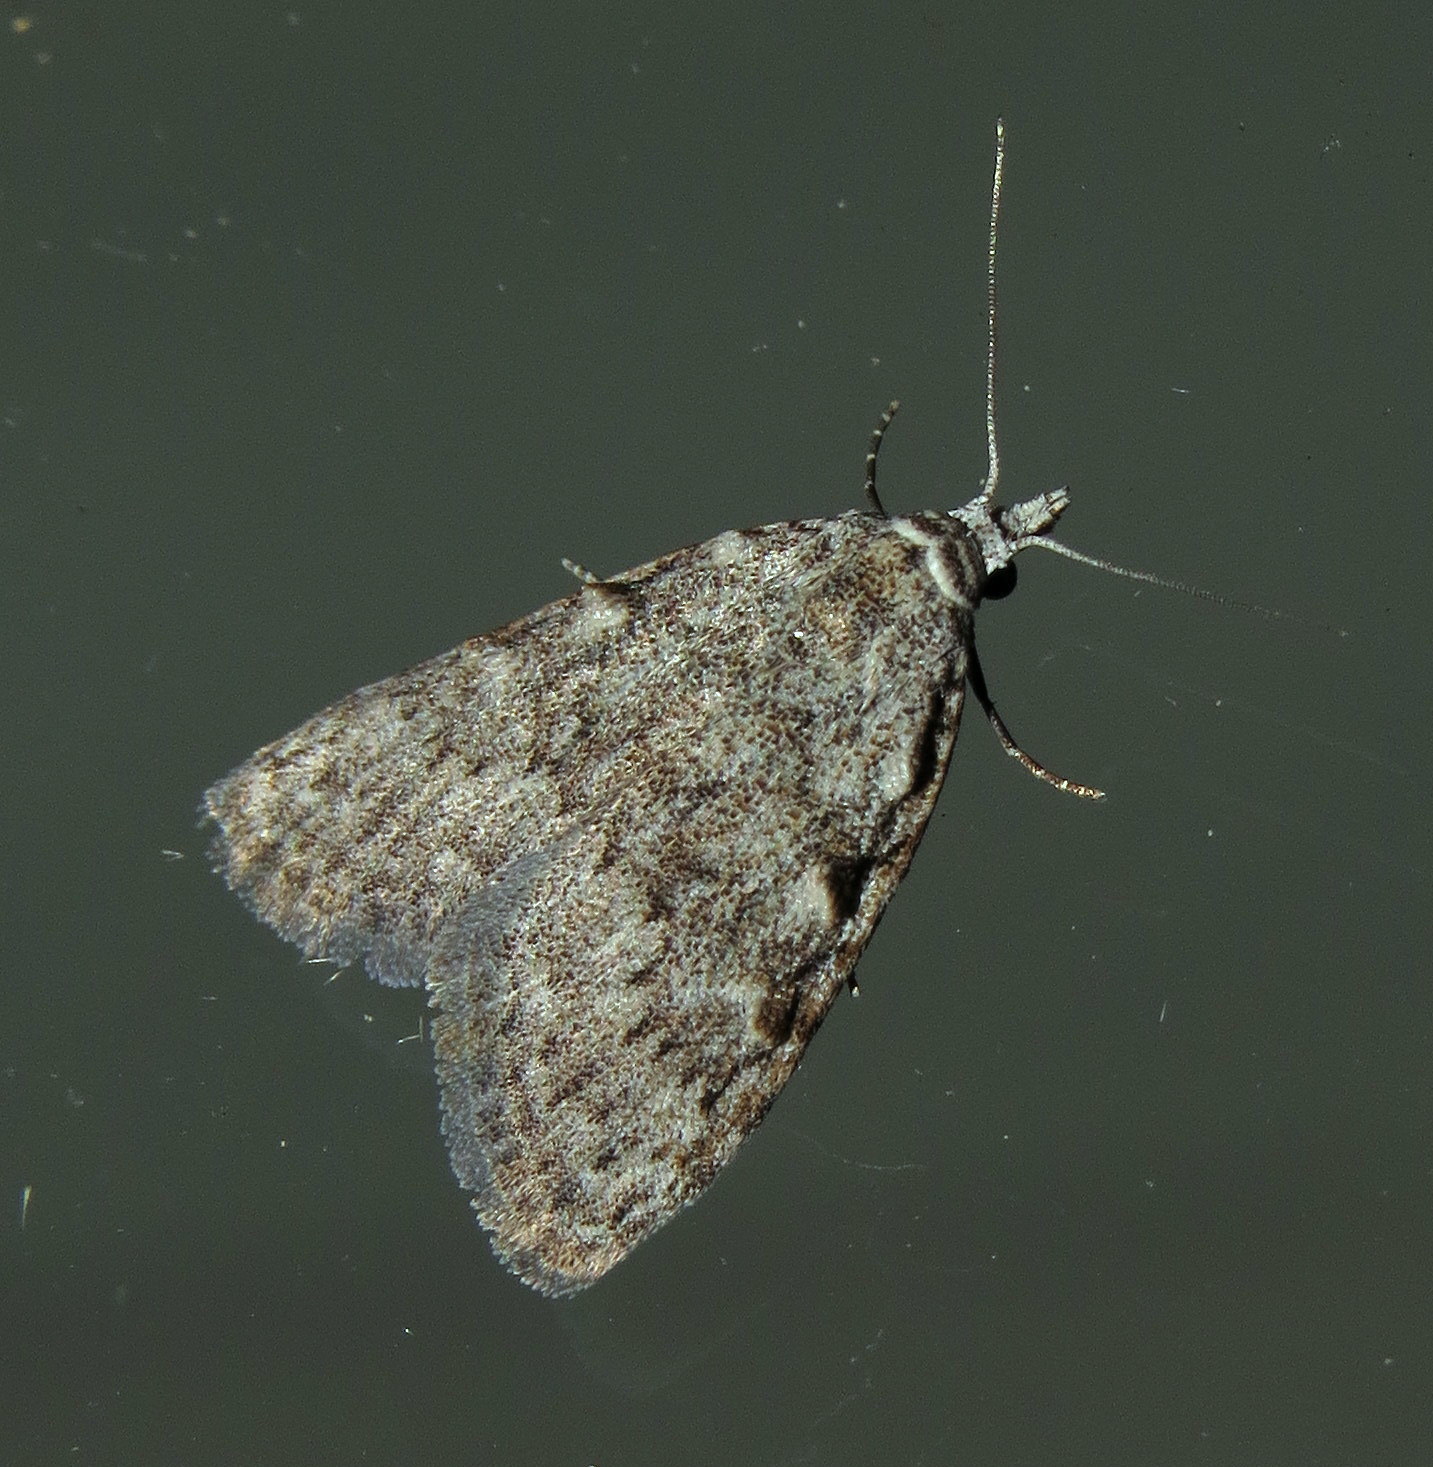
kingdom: Animalia
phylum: Arthropoda
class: Insecta
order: Lepidoptera
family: Nolidae
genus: Nola
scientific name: Nola clethrae
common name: Sweet pepperbush nola moth
